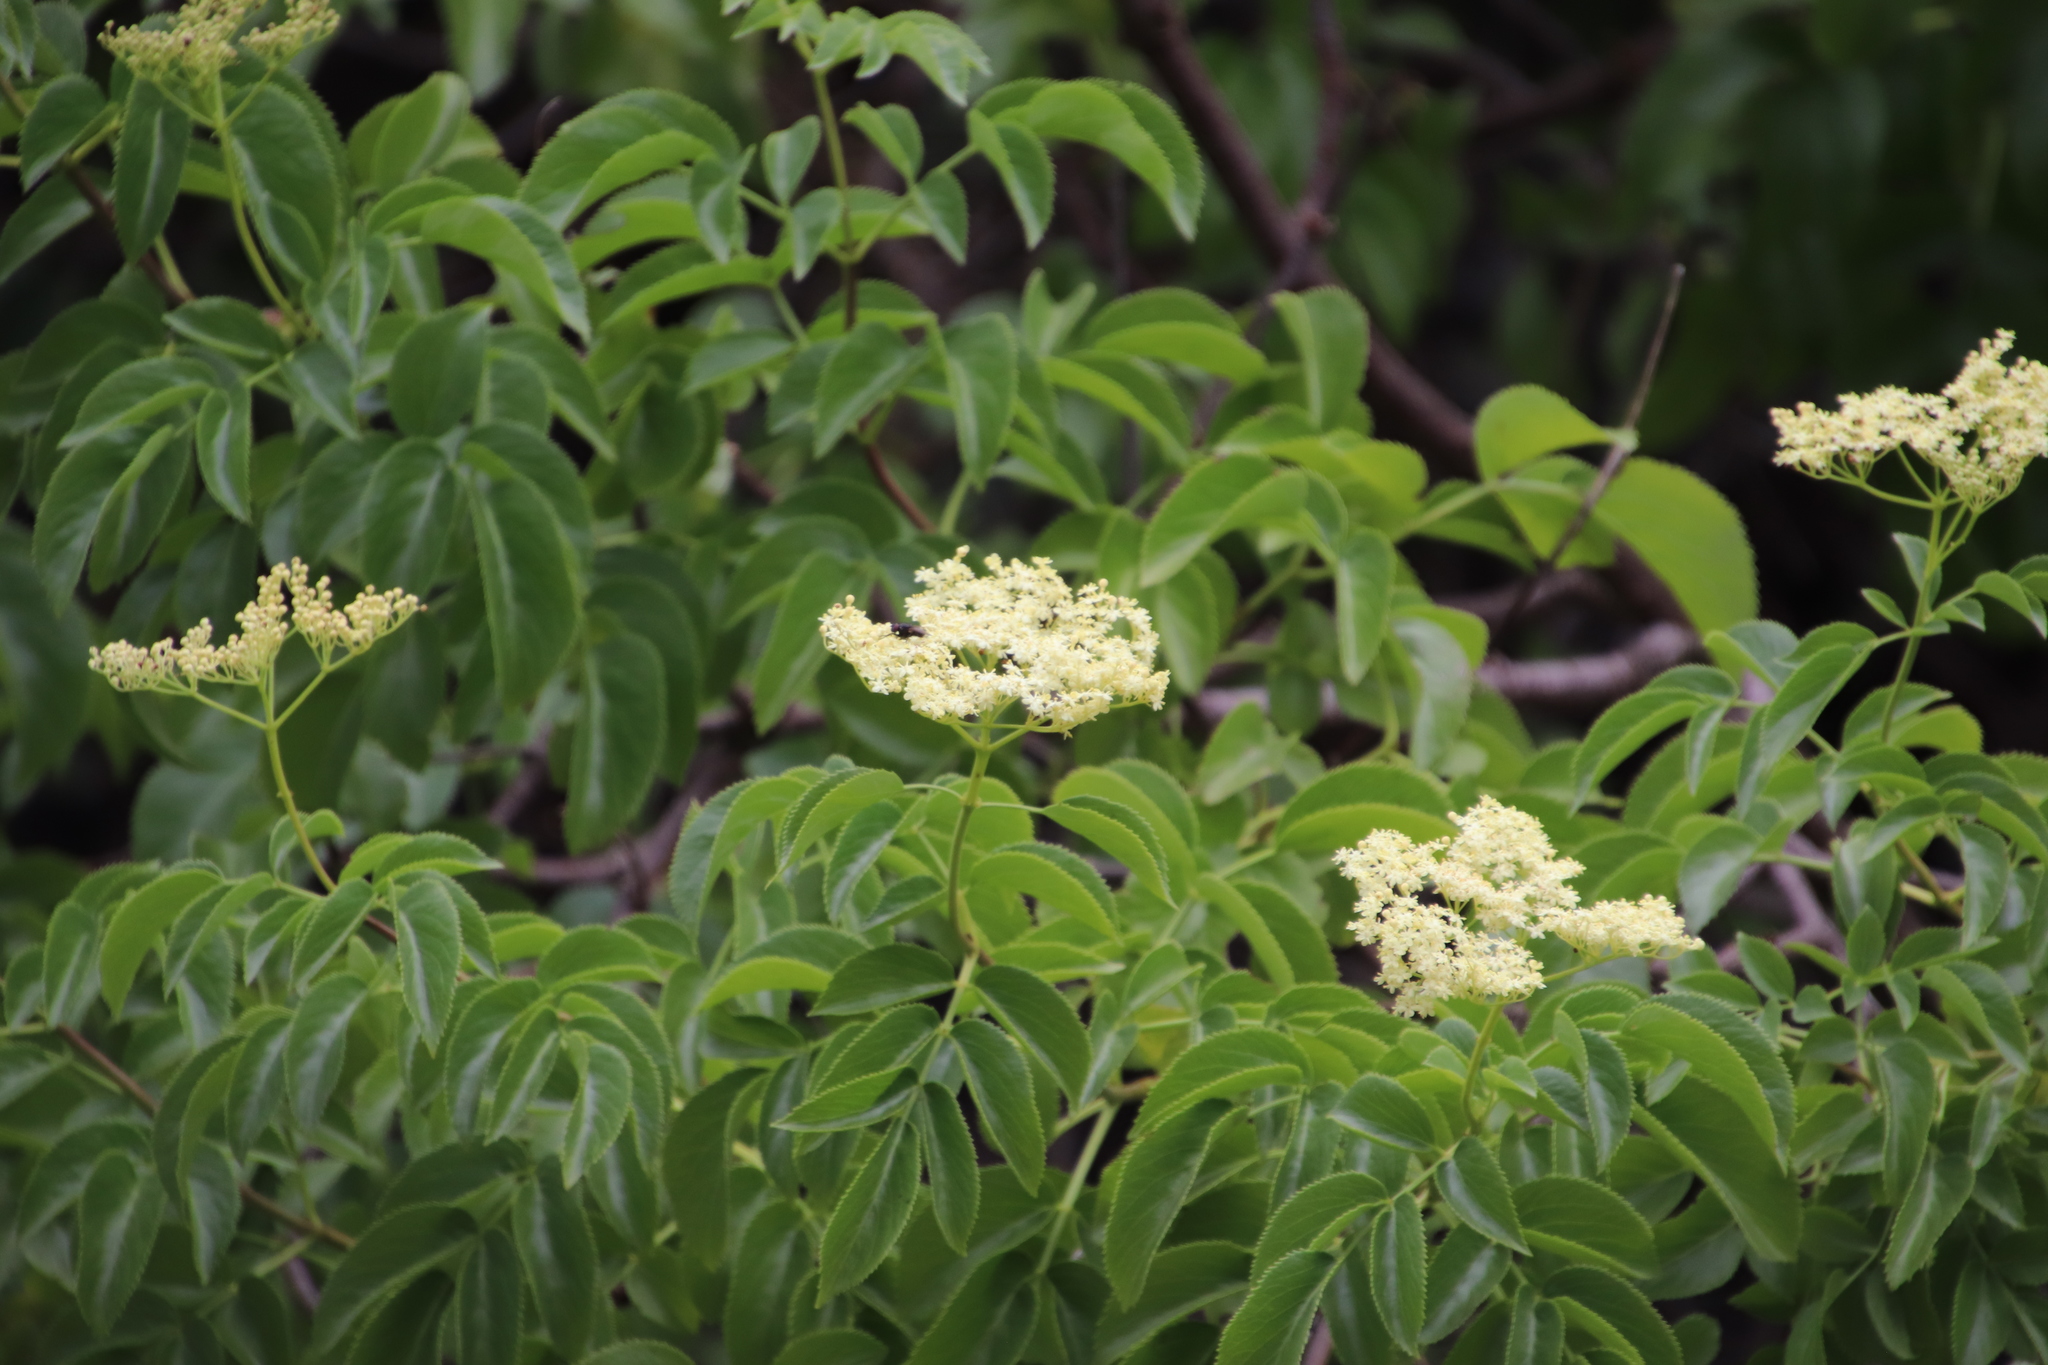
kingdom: Plantae
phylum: Tracheophyta
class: Magnoliopsida
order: Dipsacales
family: Viburnaceae
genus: Sambucus
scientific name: Sambucus cerulea
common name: Blue elder
